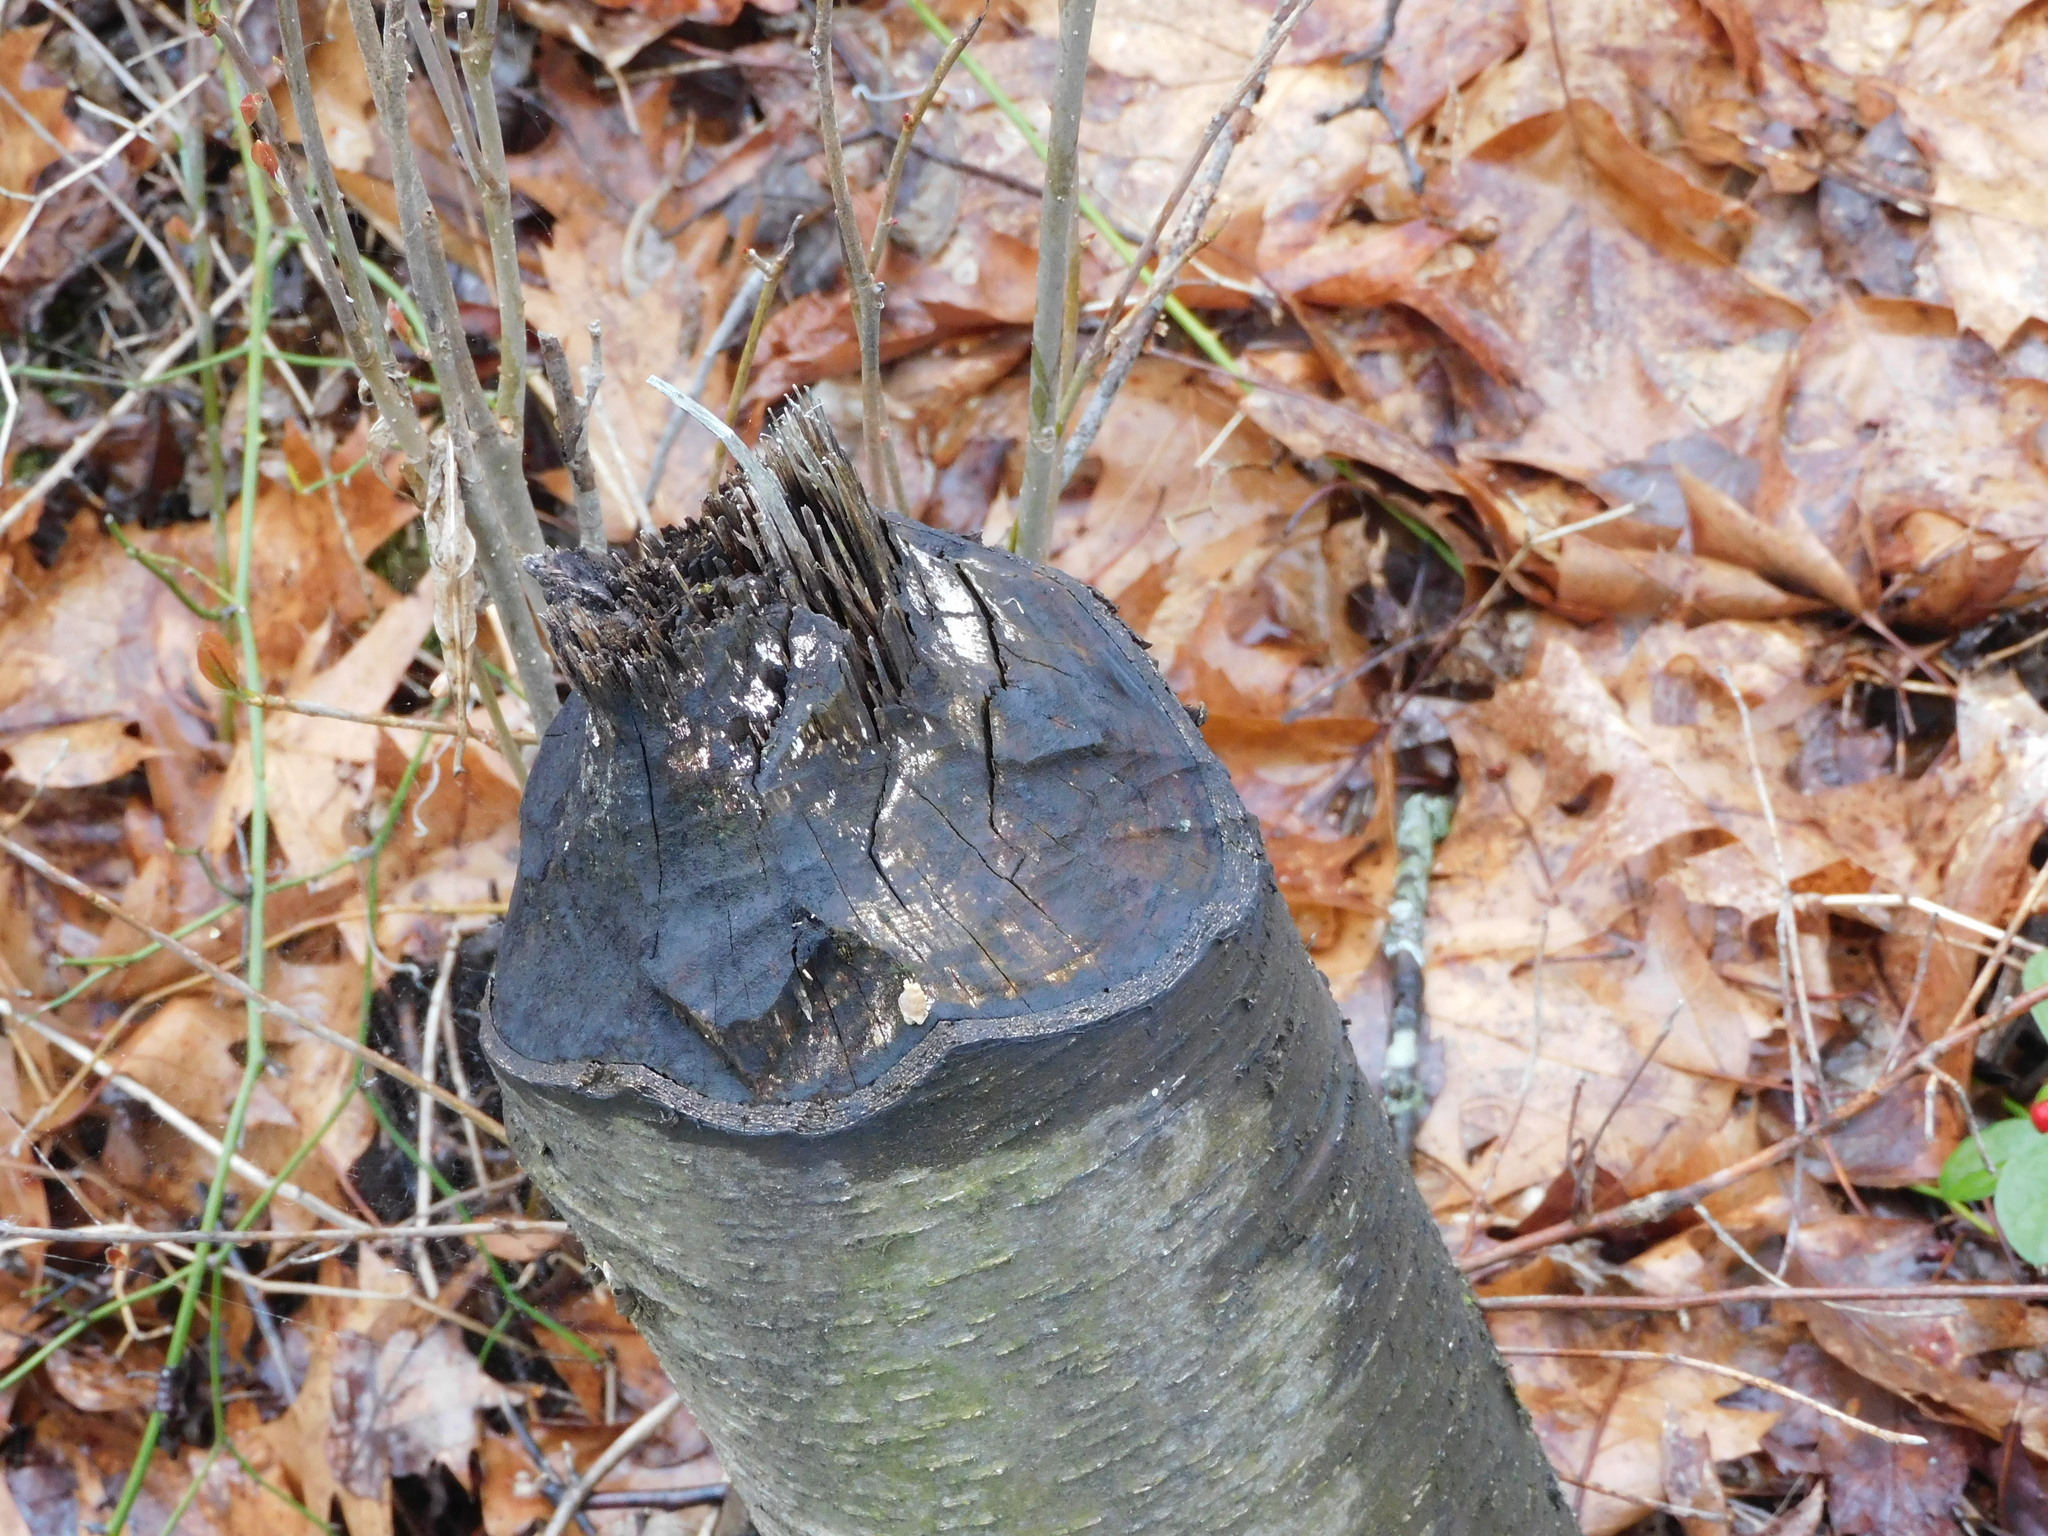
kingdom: Animalia
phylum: Chordata
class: Mammalia
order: Rodentia
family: Castoridae
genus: Castor
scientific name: Castor canadensis
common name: American beaver
